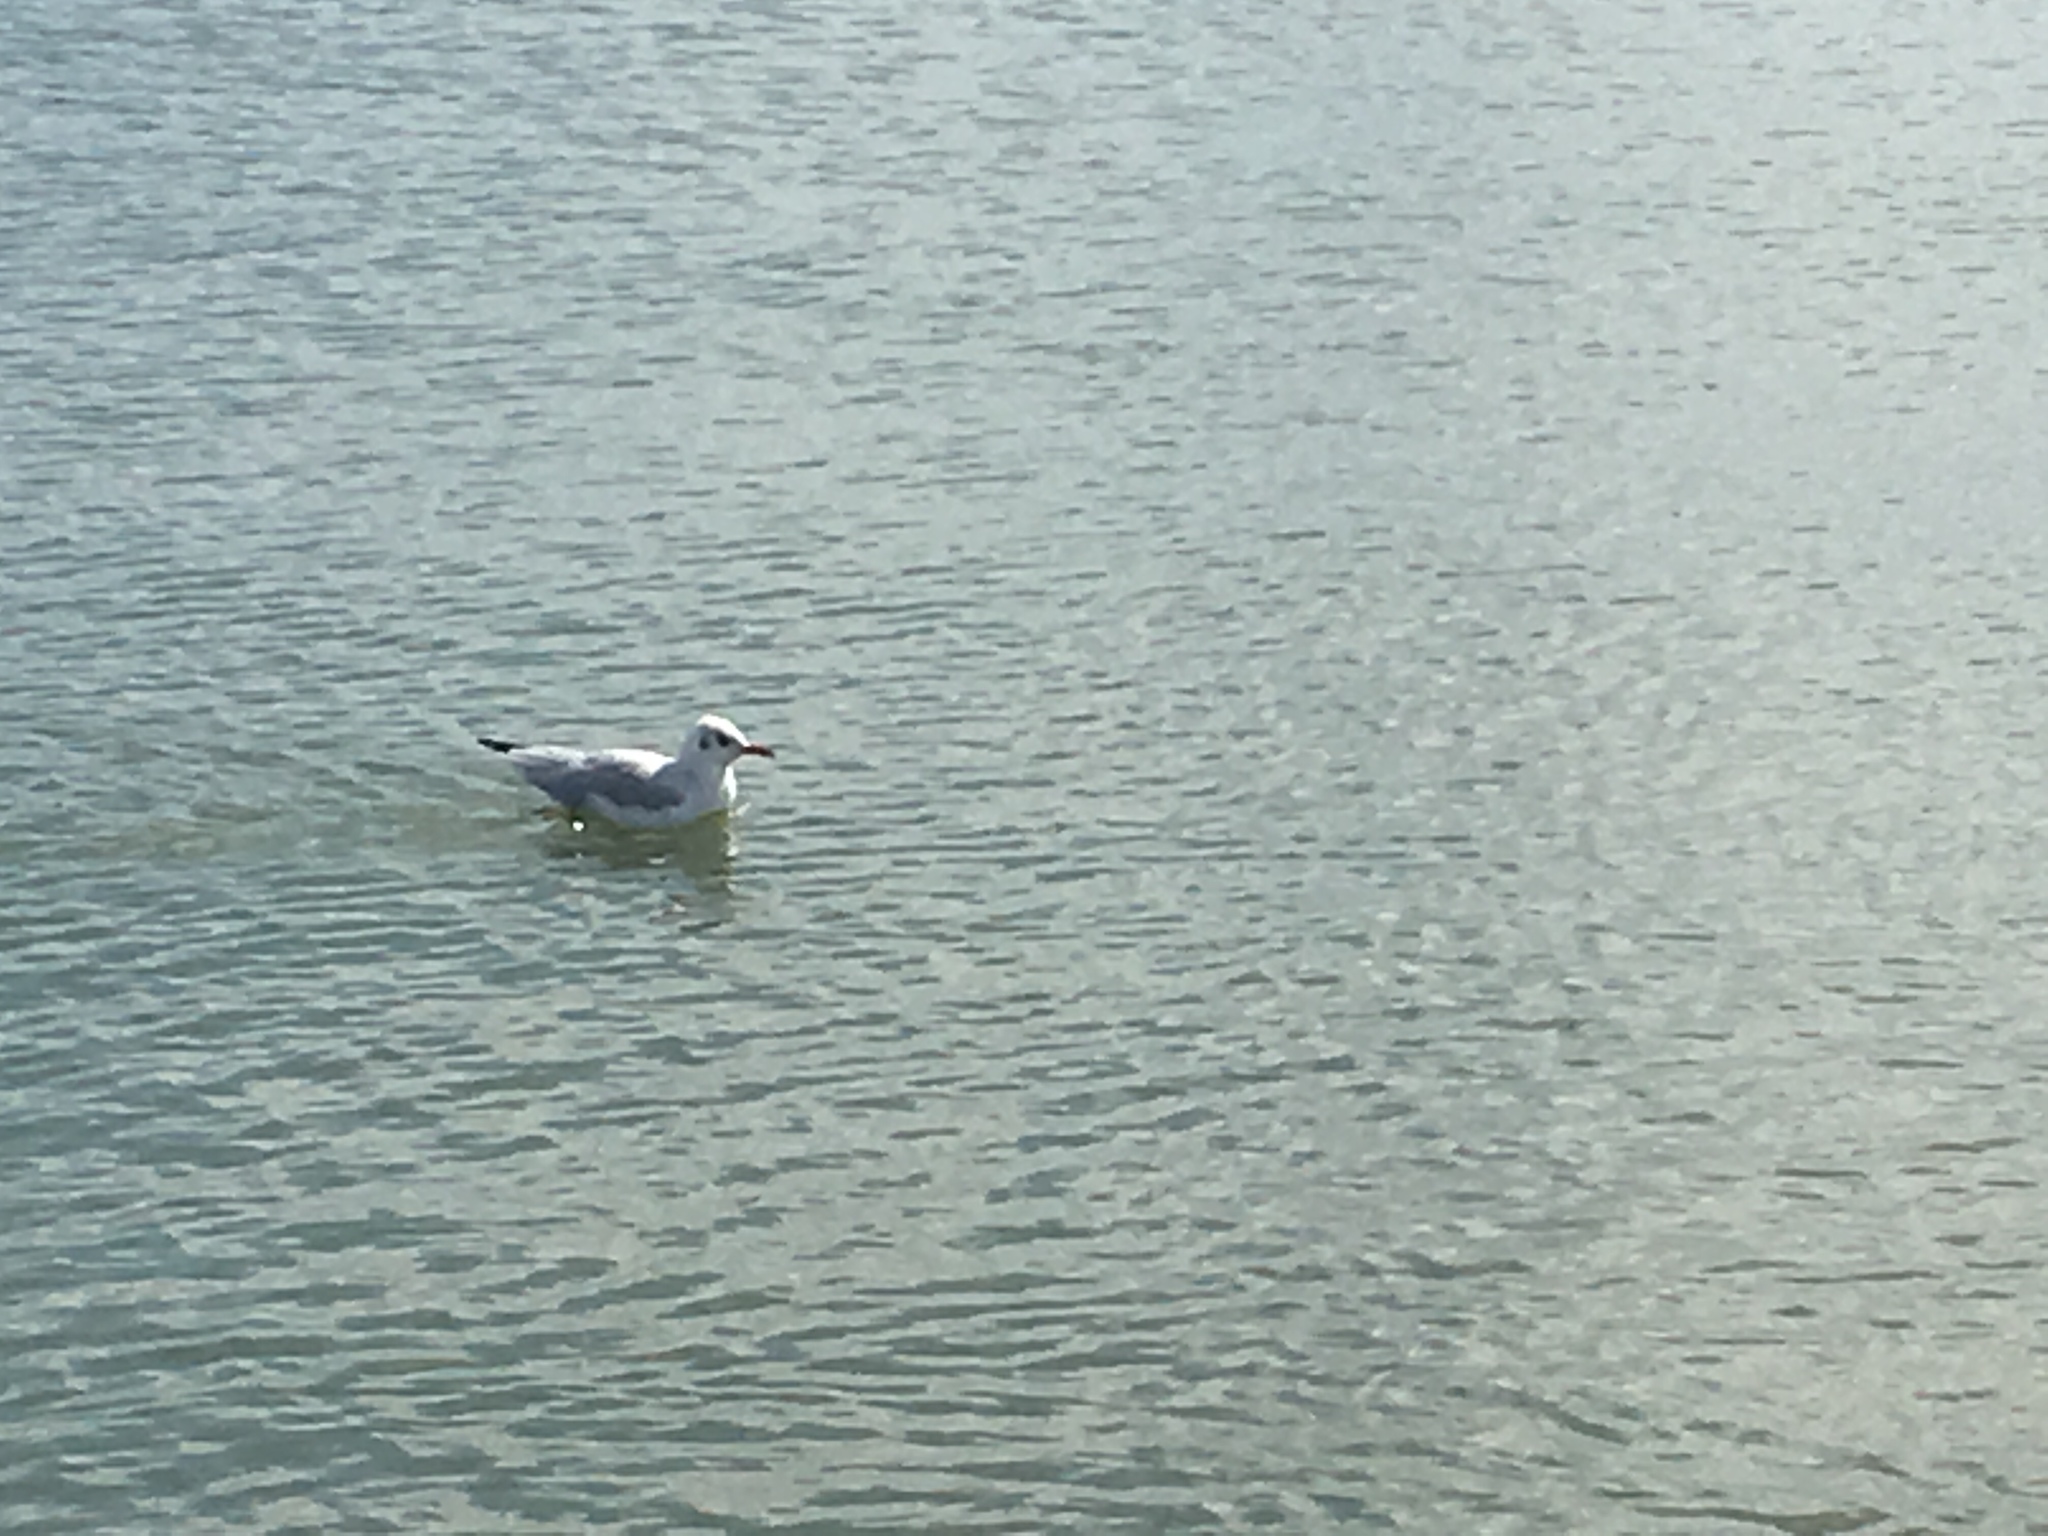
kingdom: Animalia
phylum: Chordata
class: Aves
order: Charadriiformes
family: Laridae
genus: Chroicocephalus
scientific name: Chroicocephalus ridibundus
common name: Black-headed gull
